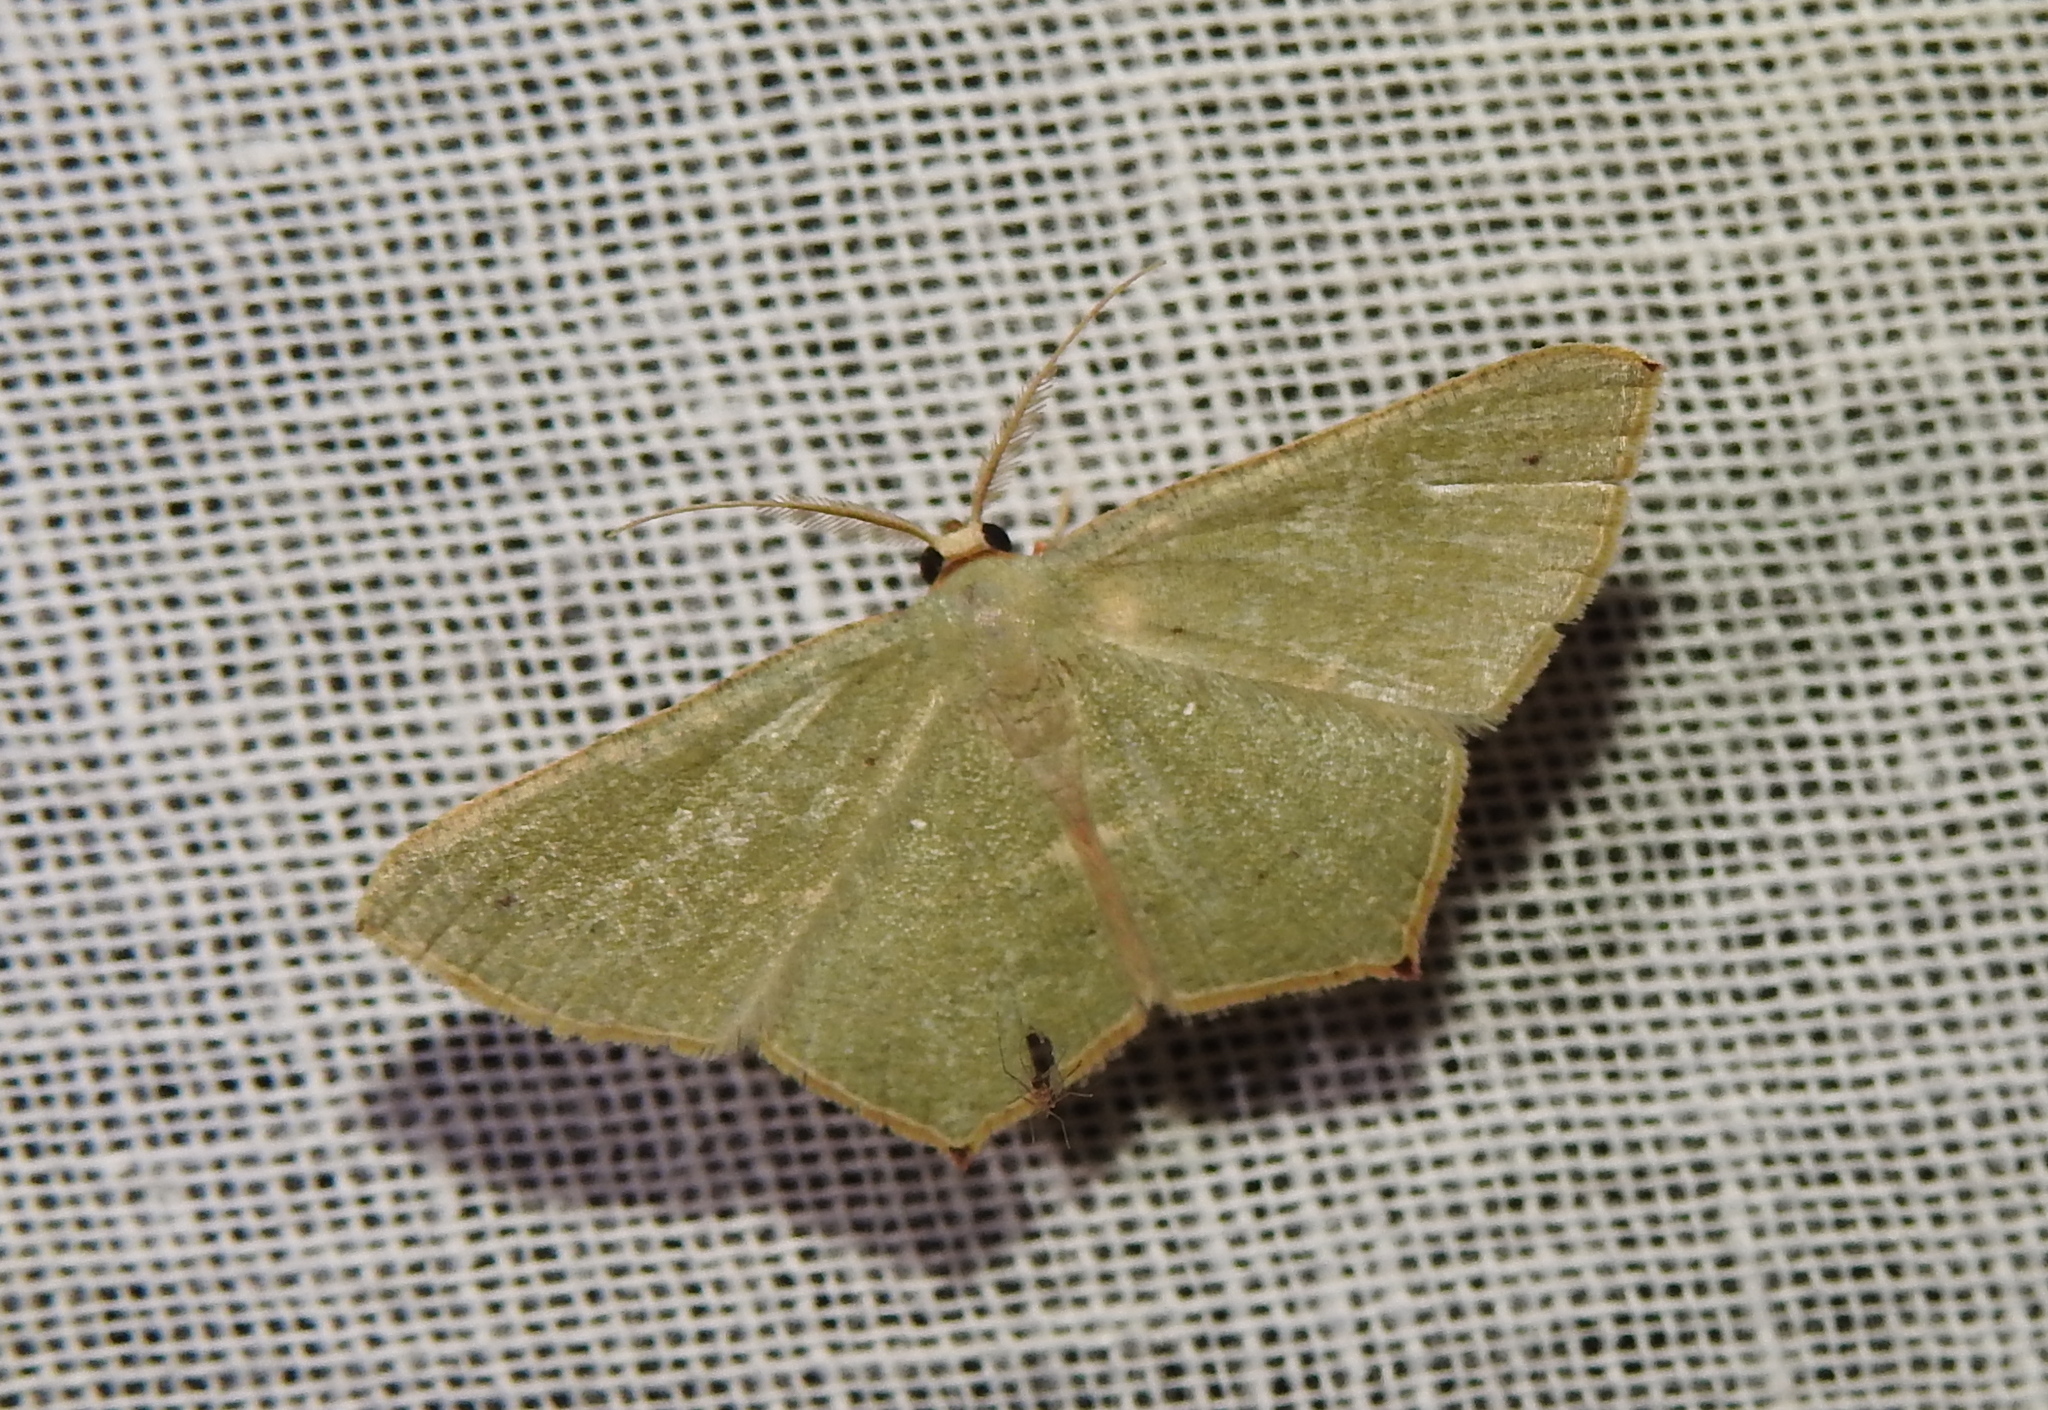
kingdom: Animalia
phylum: Arthropoda
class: Insecta
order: Lepidoptera
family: Geometridae
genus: Traminda
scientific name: Traminda mundissima
